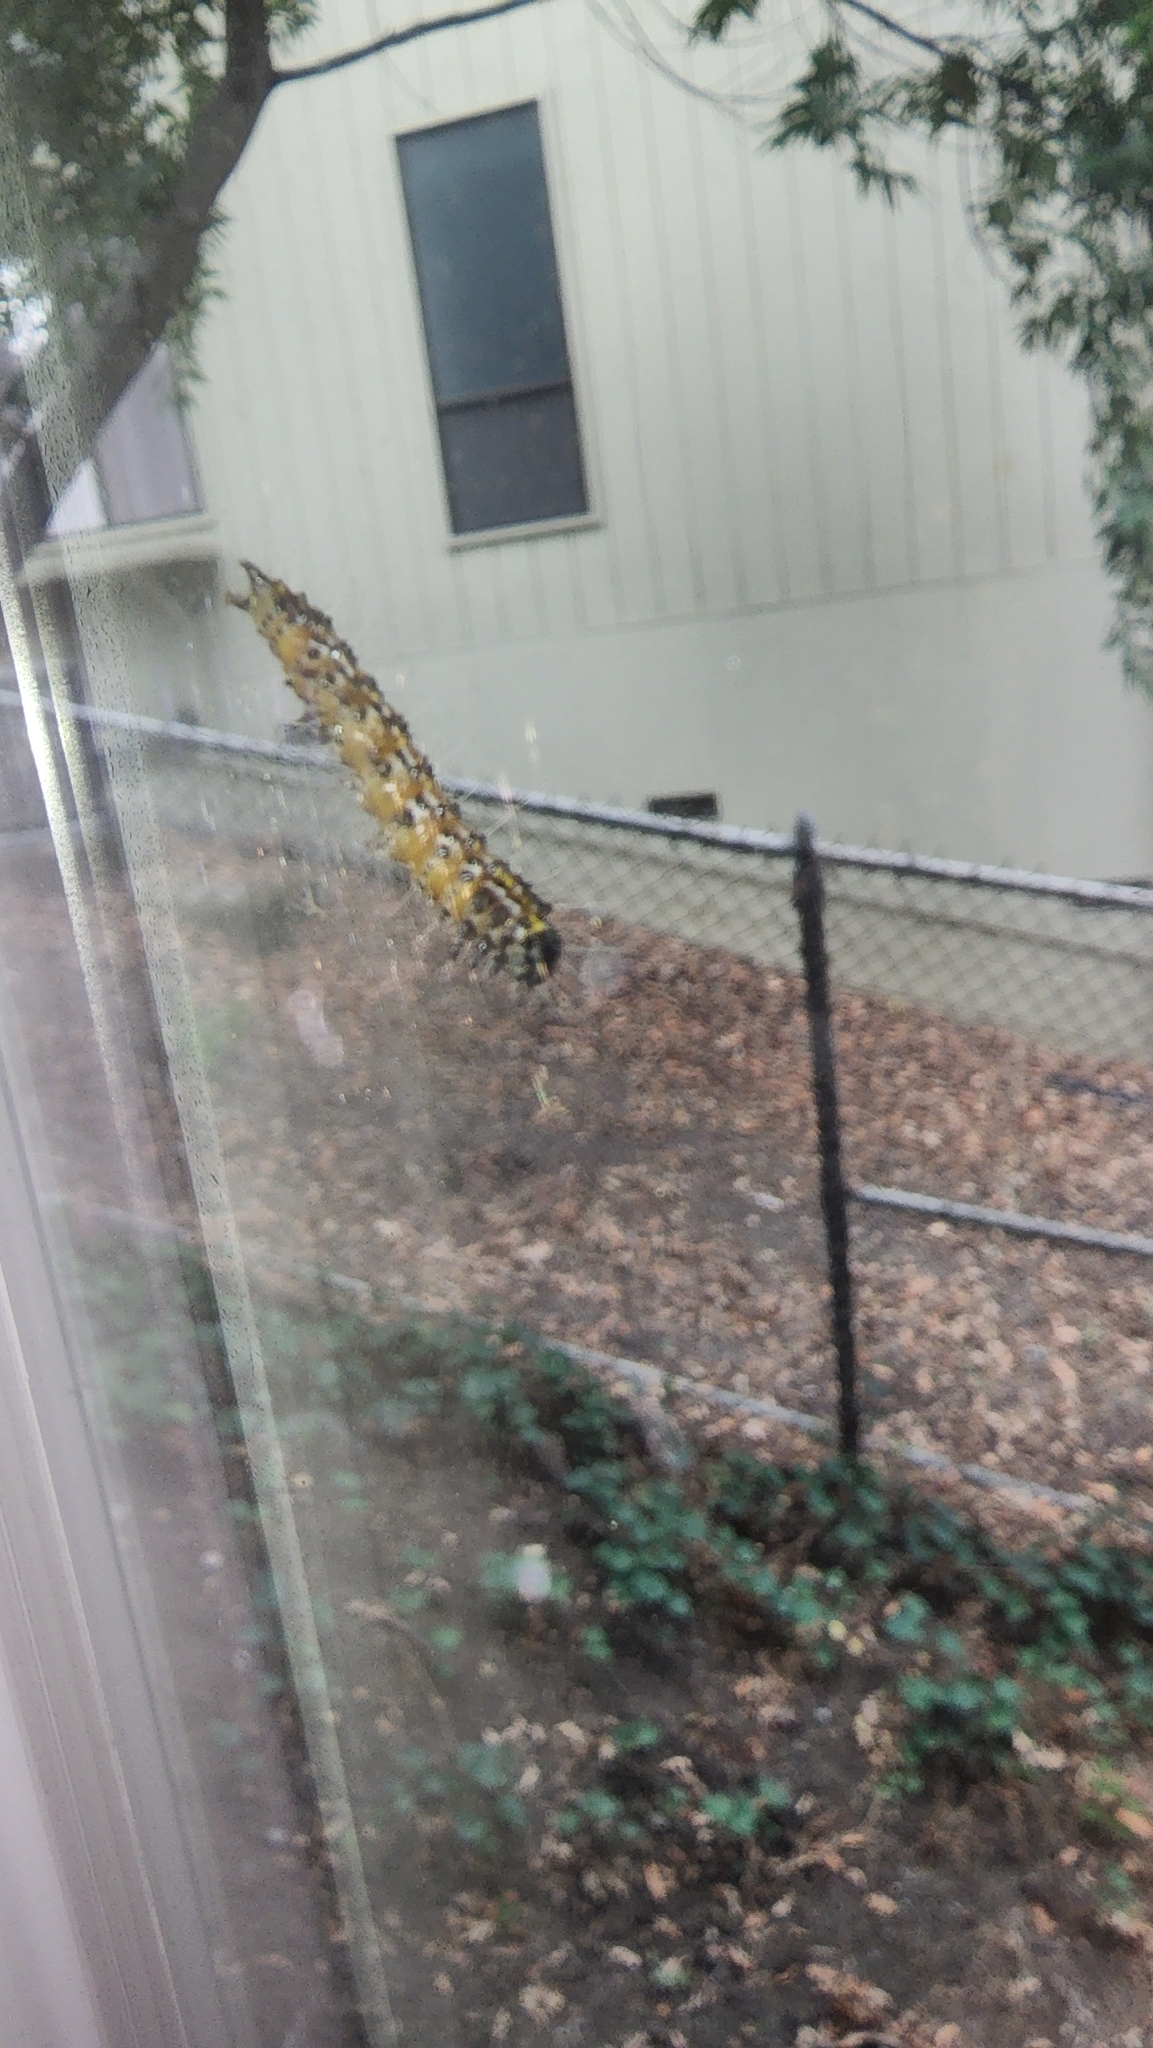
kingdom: Animalia
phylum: Arthropoda
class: Insecta
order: Lepidoptera
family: Crambidae
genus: Uresiphita
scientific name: Uresiphita reversalis
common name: Genista broom moth
